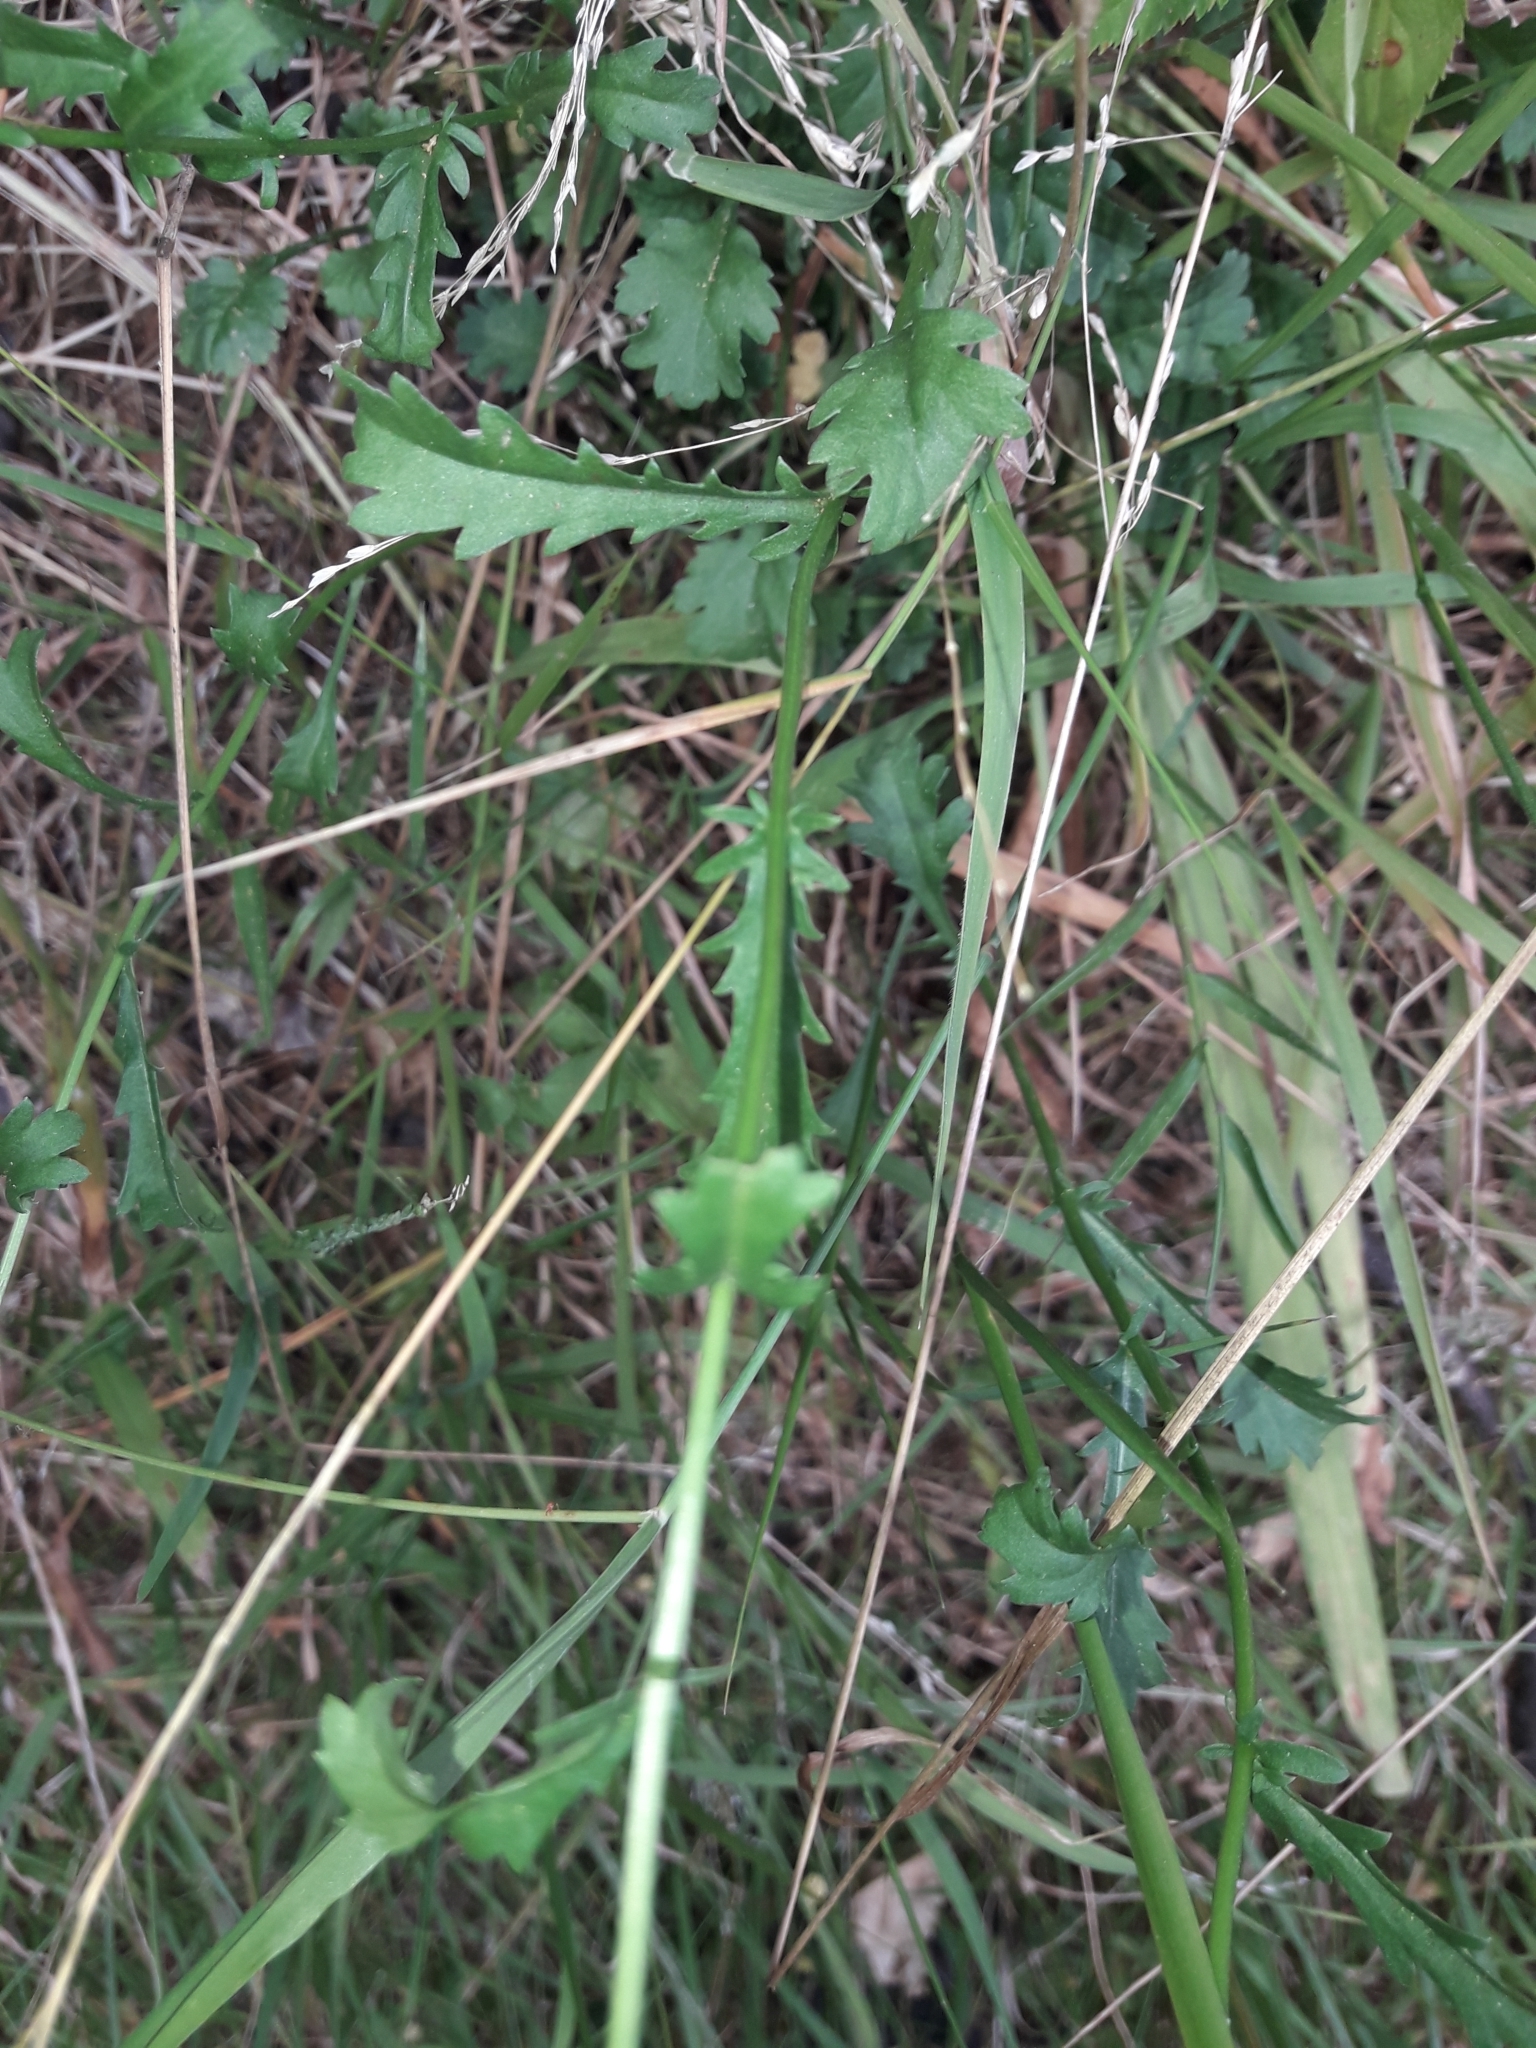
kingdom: Plantae
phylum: Tracheophyta
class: Magnoliopsida
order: Asterales
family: Asteraceae
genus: Leucanthemum
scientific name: Leucanthemum vulgare
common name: Oxeye daisy
